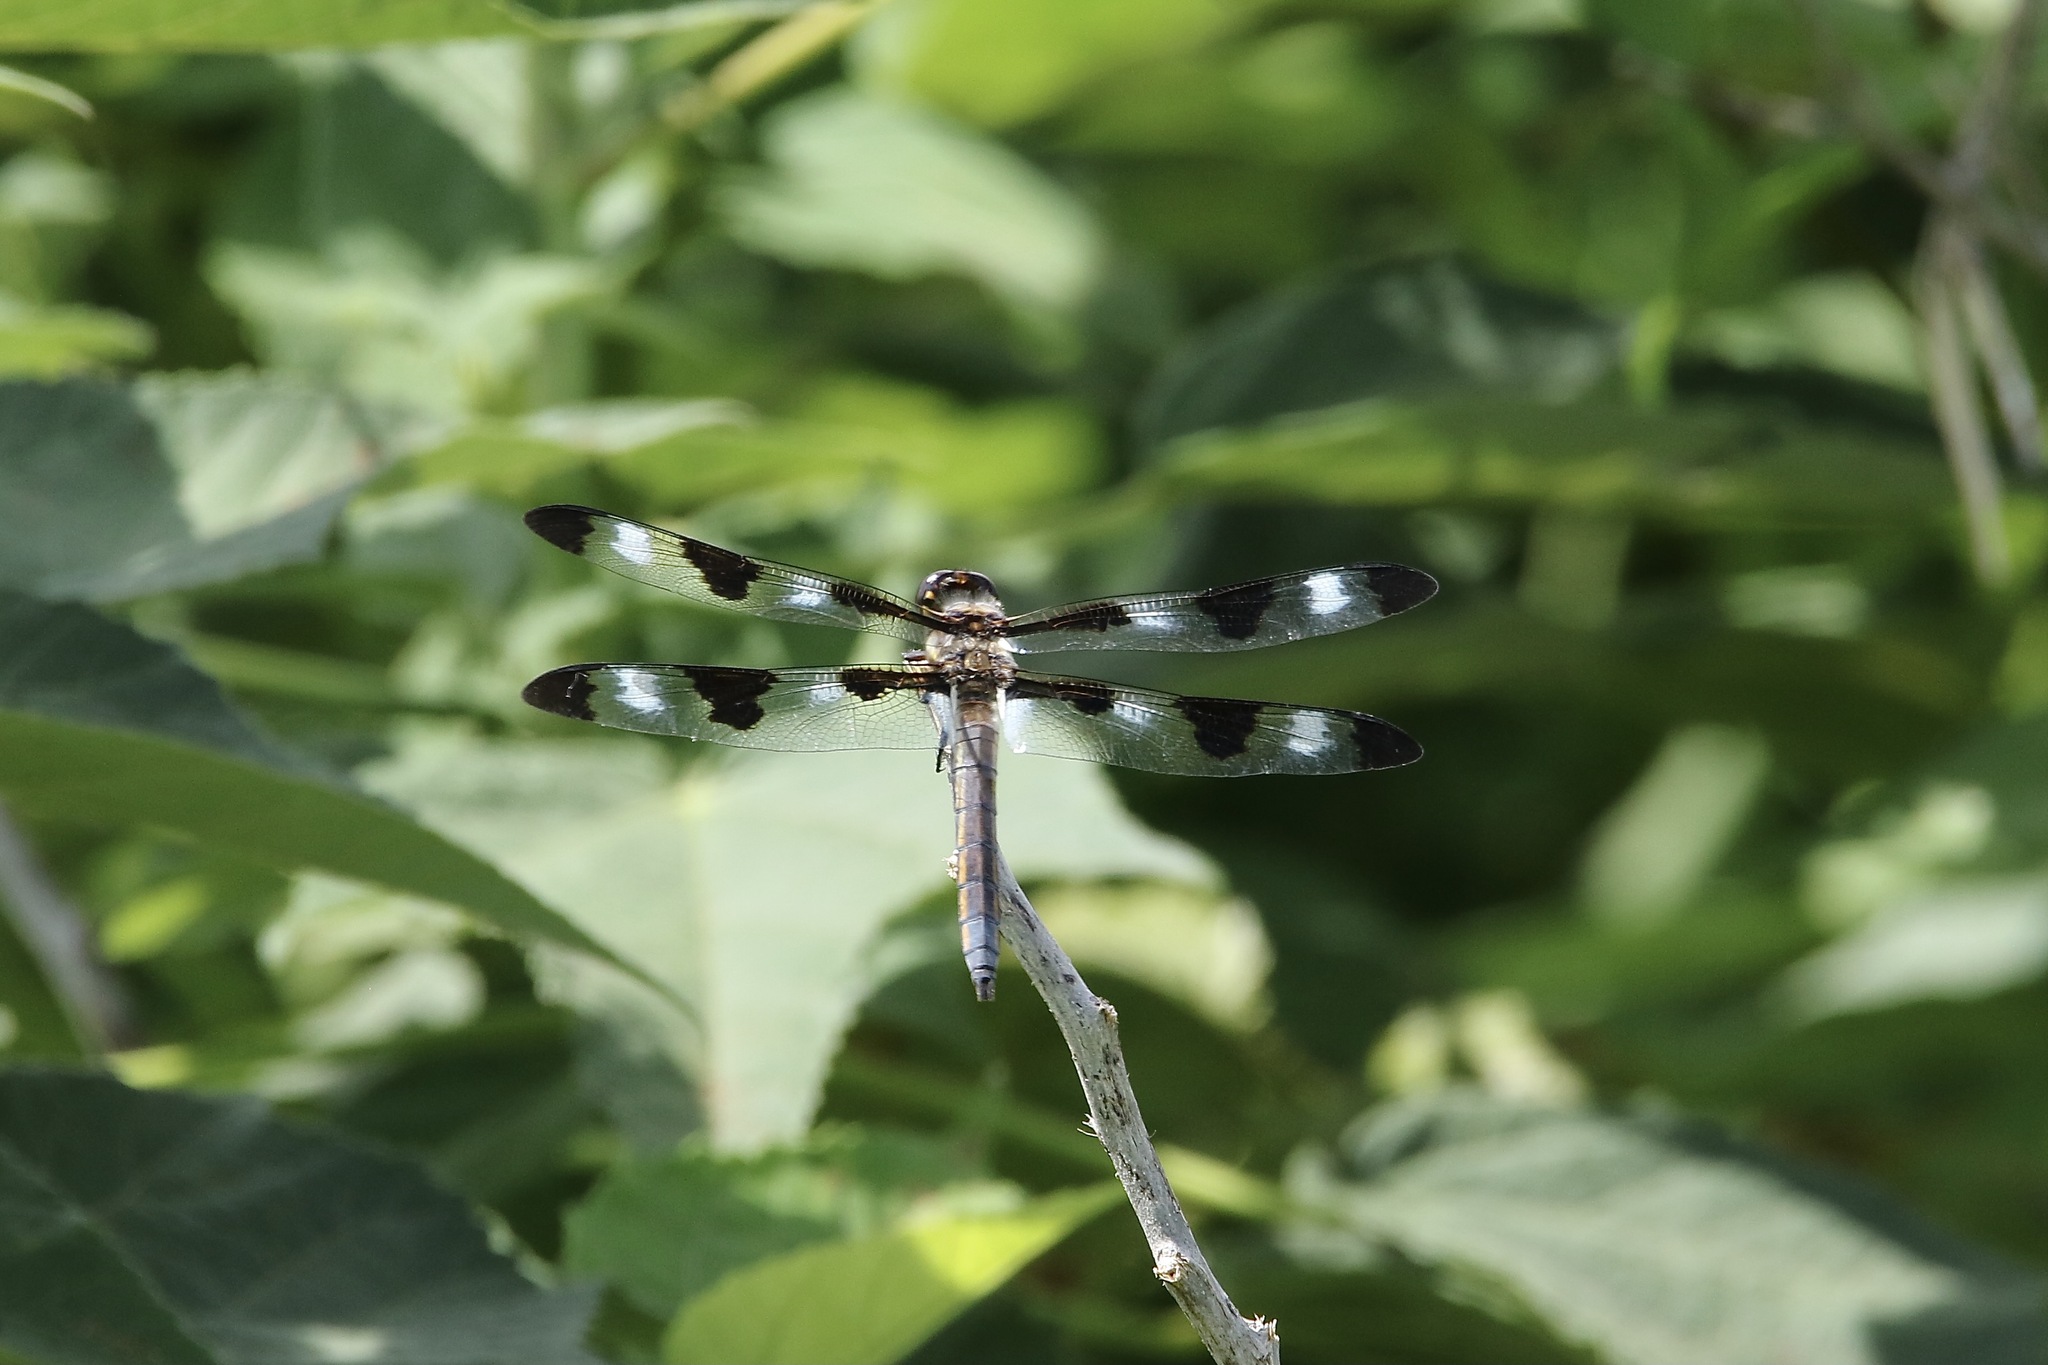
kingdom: Animalia
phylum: Arthropoda
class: Insecta
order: Odonata
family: Libellulidae
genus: Libellula
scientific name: Libellula pulchella
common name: Twelve-spotted skimmer
